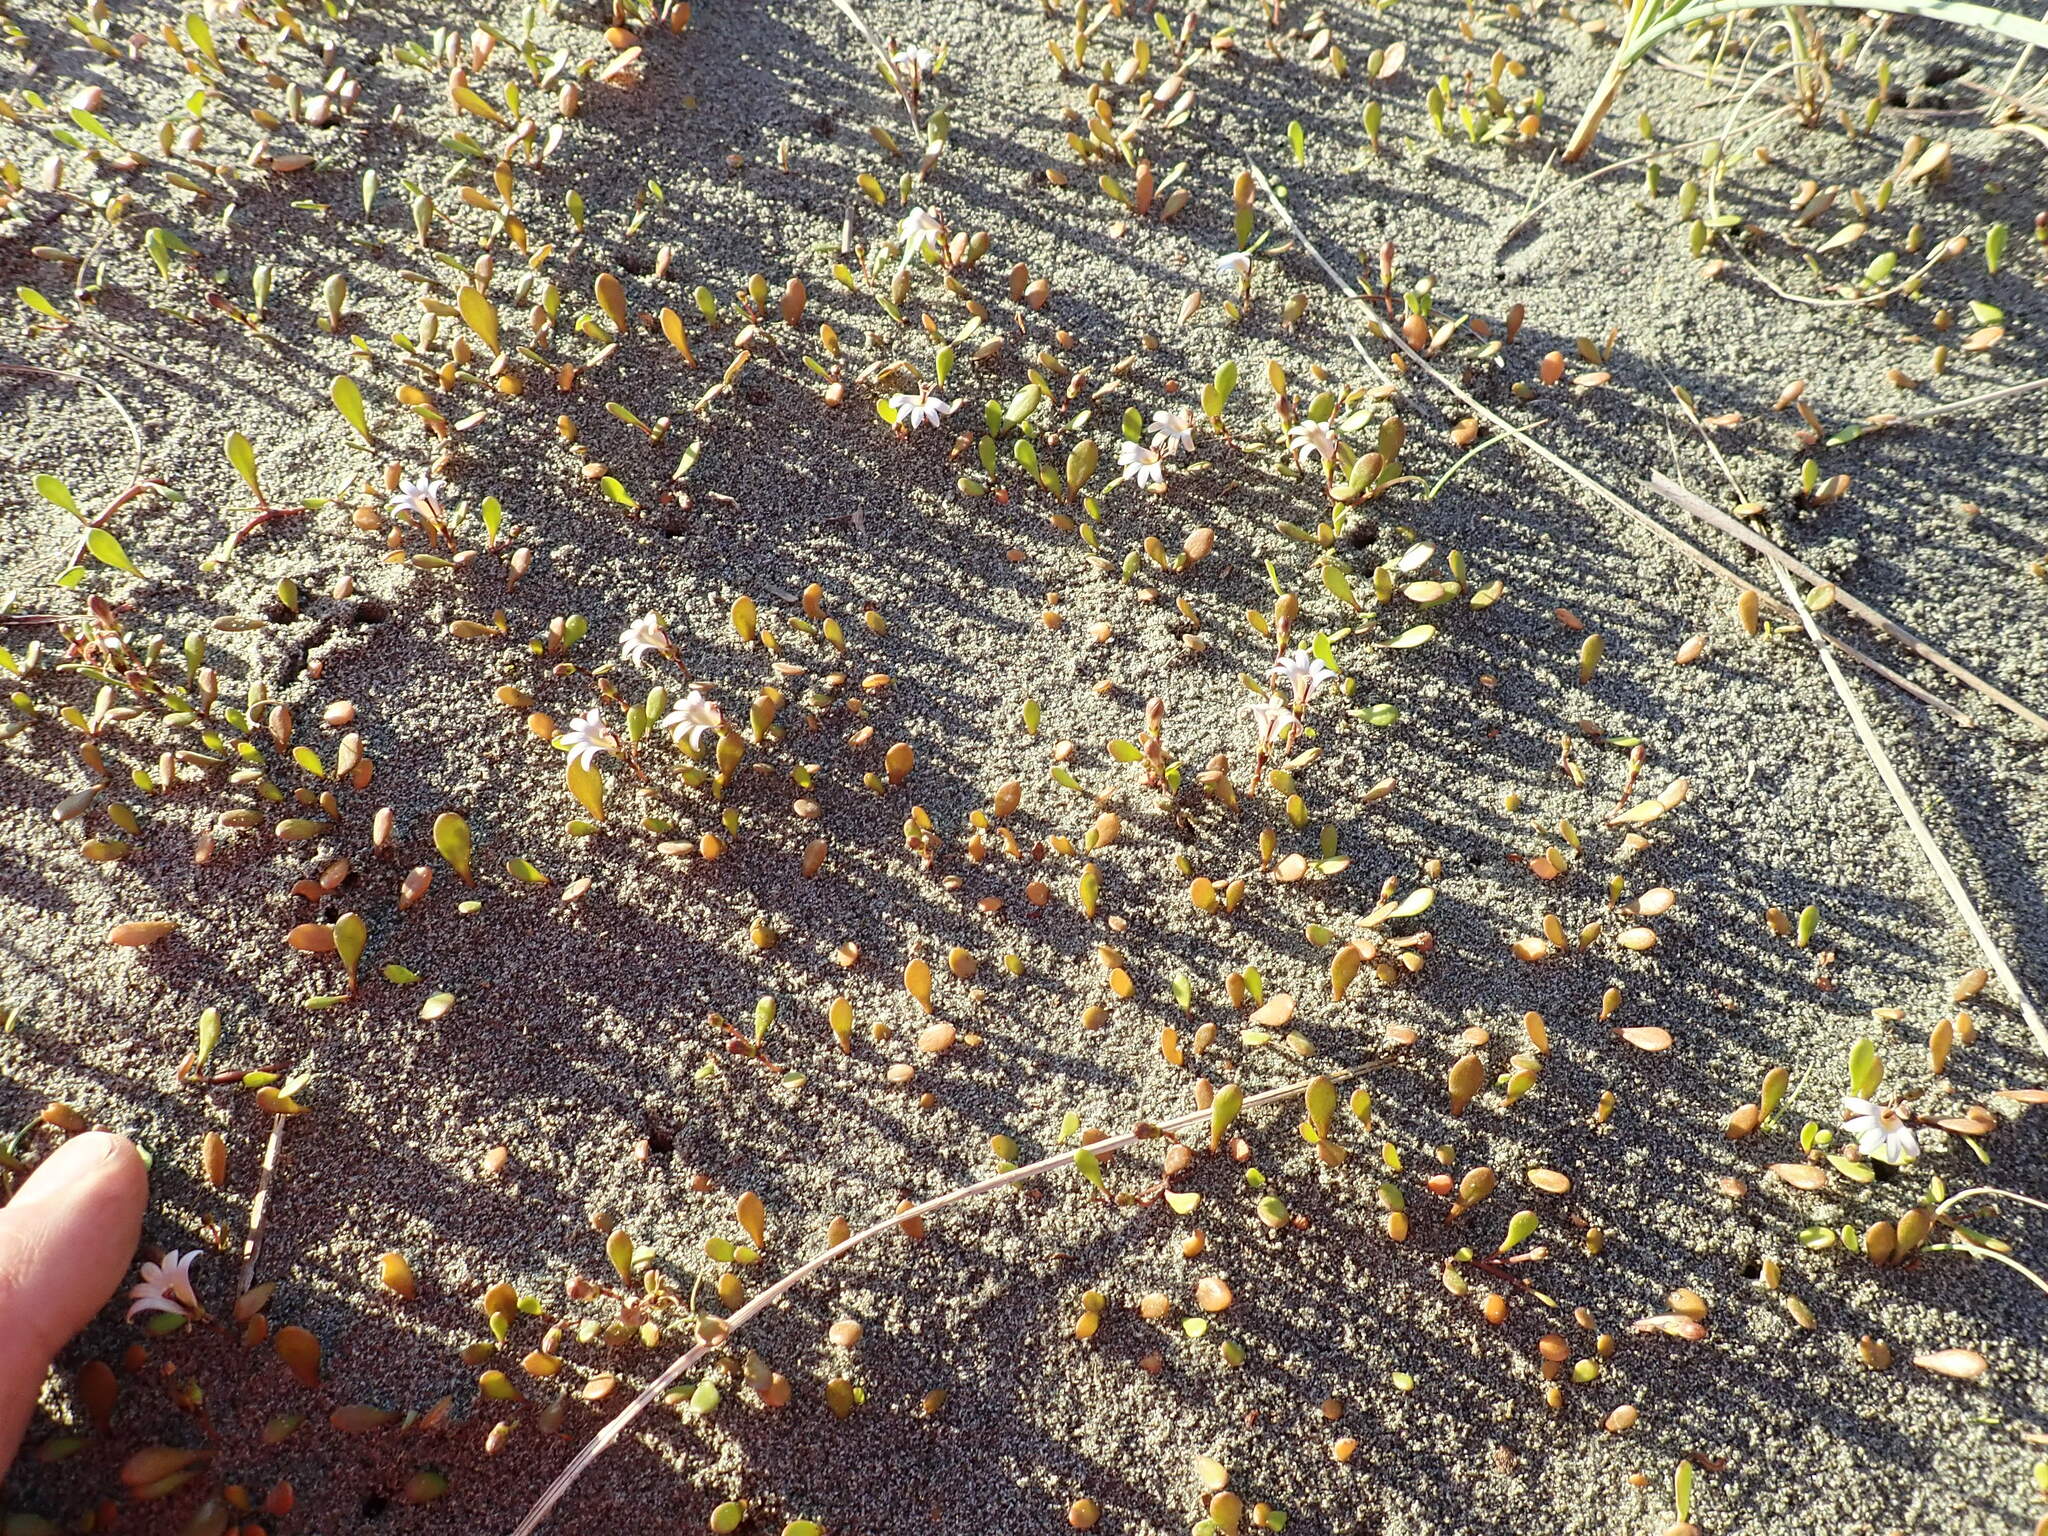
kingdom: Plantae
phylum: Tracheophyta
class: Magnoliopsida
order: Asterales
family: Goodeniaceae
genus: Goodenia
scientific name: Goodenia radicans
